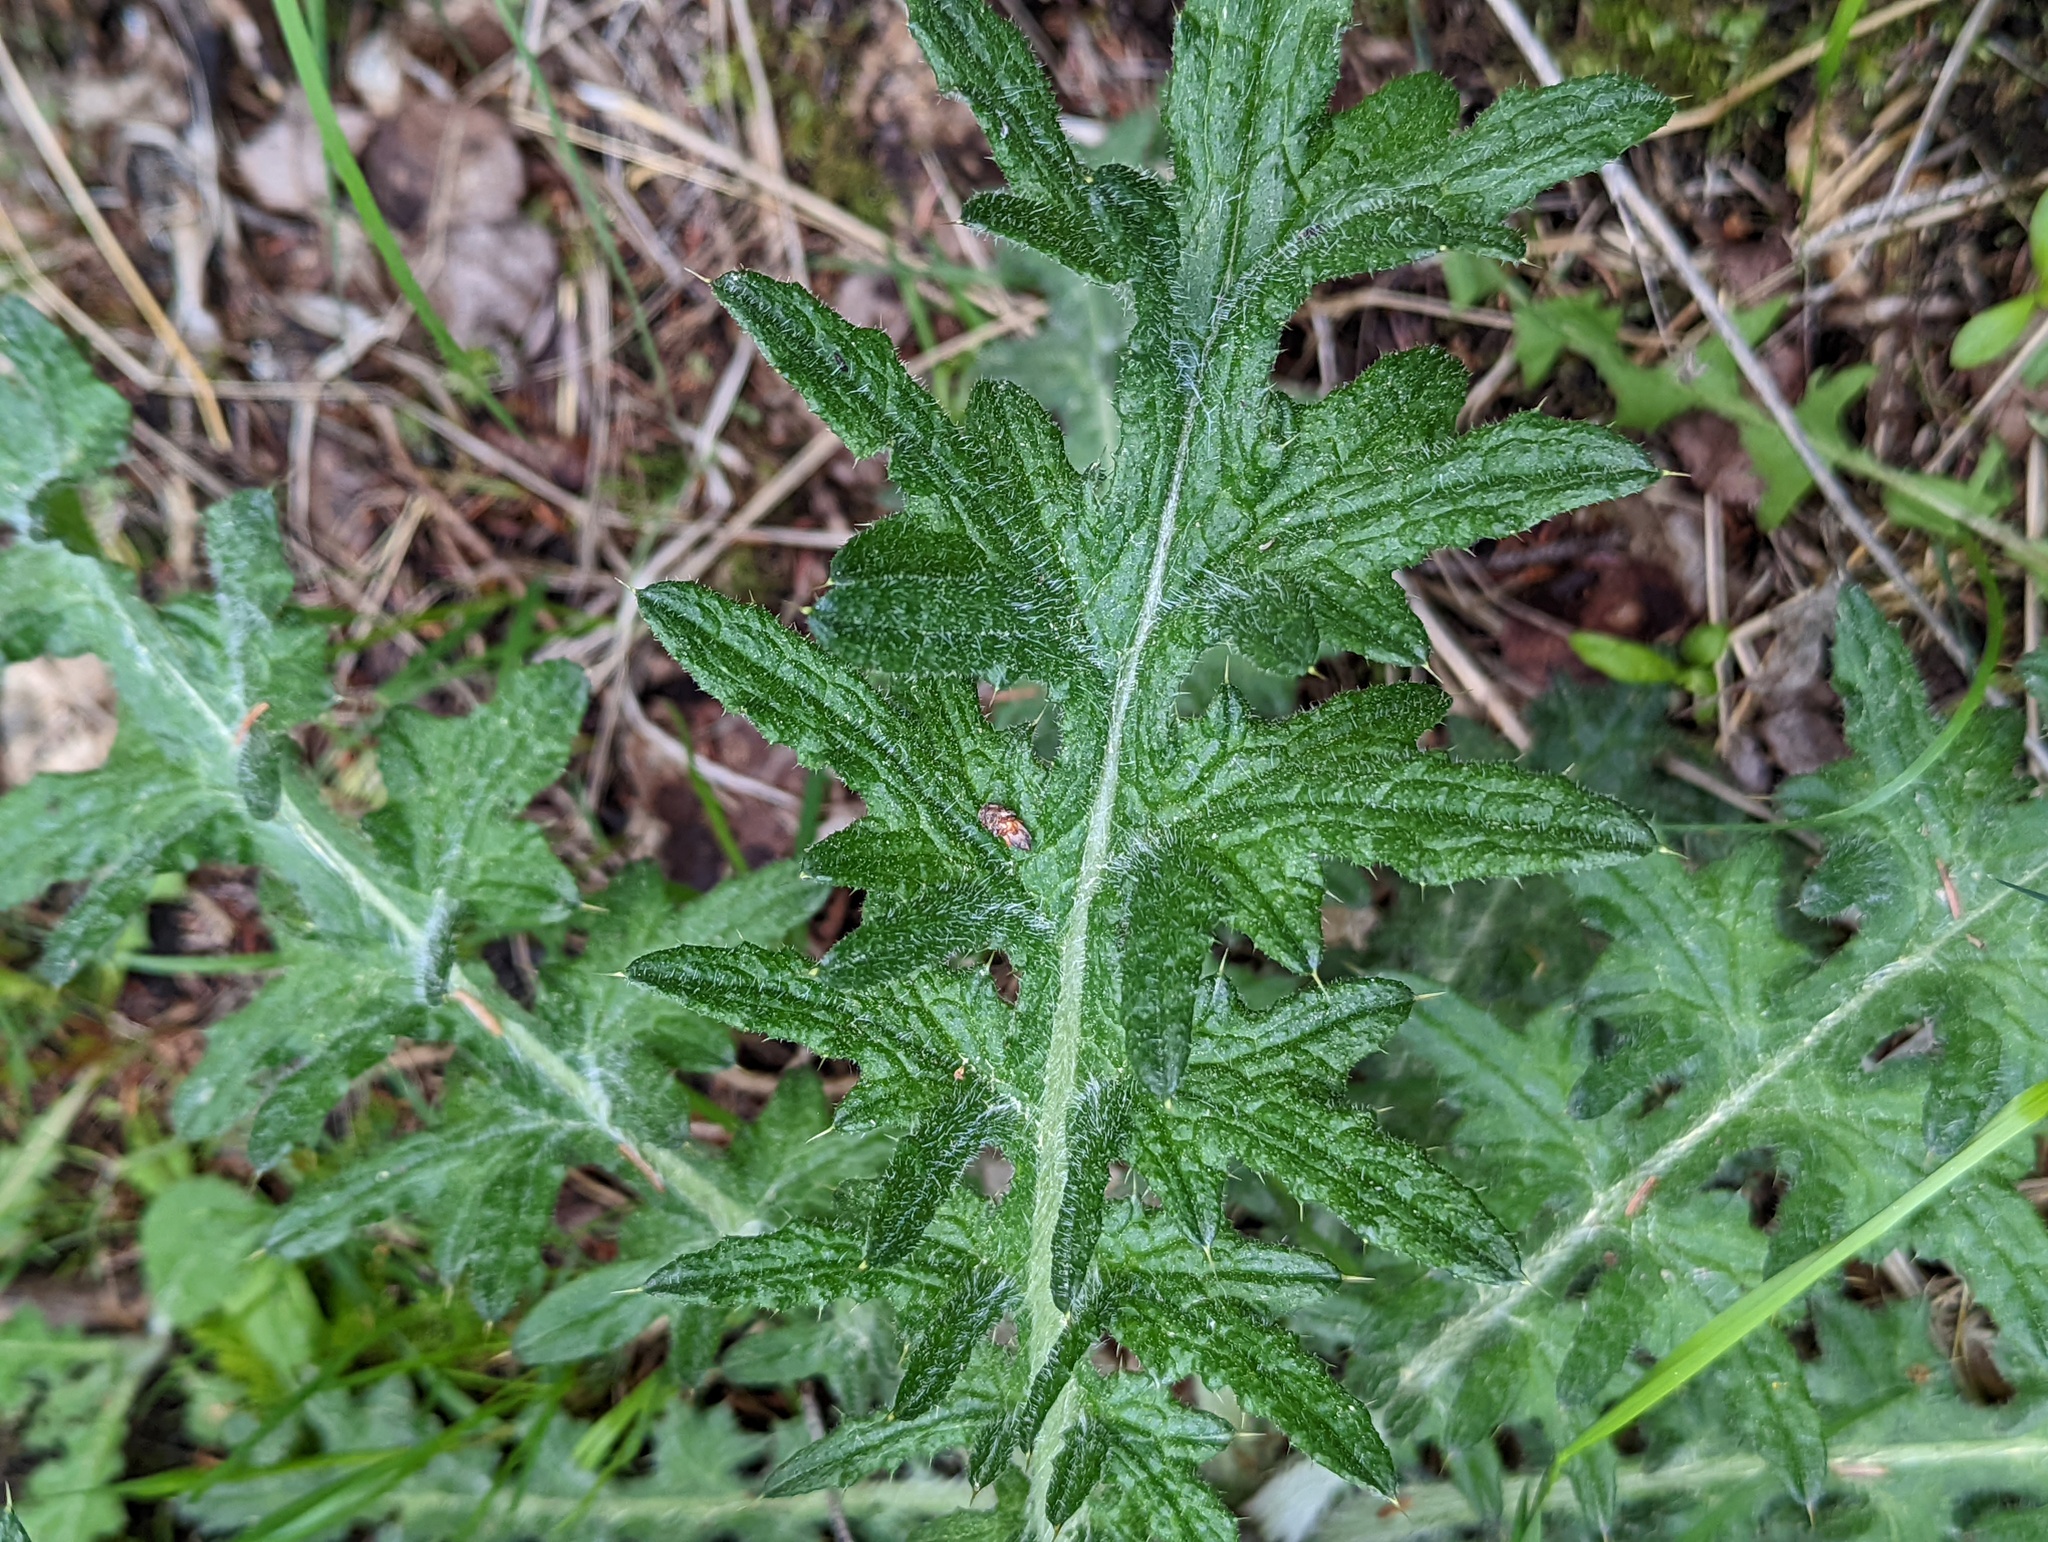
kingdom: Plantae
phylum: Tracheophyta
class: Magnoliopsida
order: Asterales
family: Asteraceae
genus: Cirsium
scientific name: Cirsium vulgare
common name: Bull thistle
